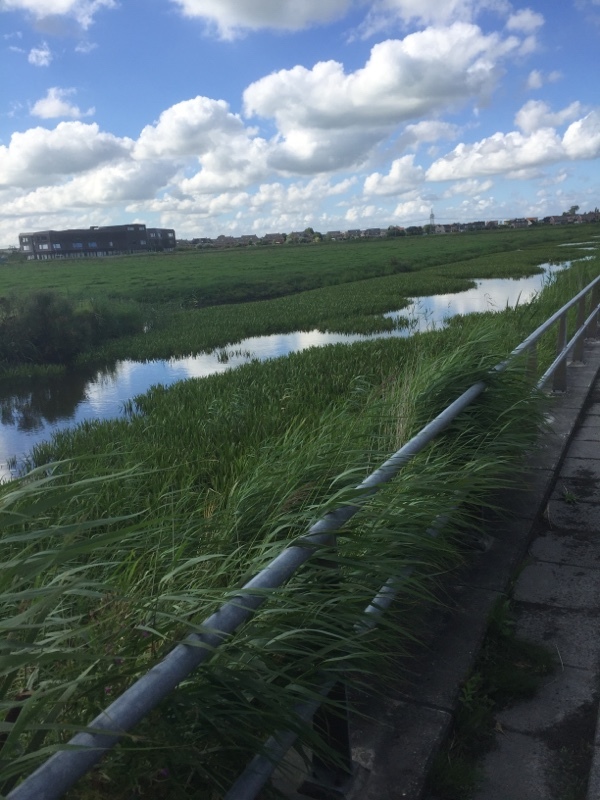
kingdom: Plantae
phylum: Tracheophyta
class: Liliopsida
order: Alismatales
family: Hydrocharitaceae
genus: Stratiotes
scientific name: Stratiotes aloides
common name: Water-soldier
